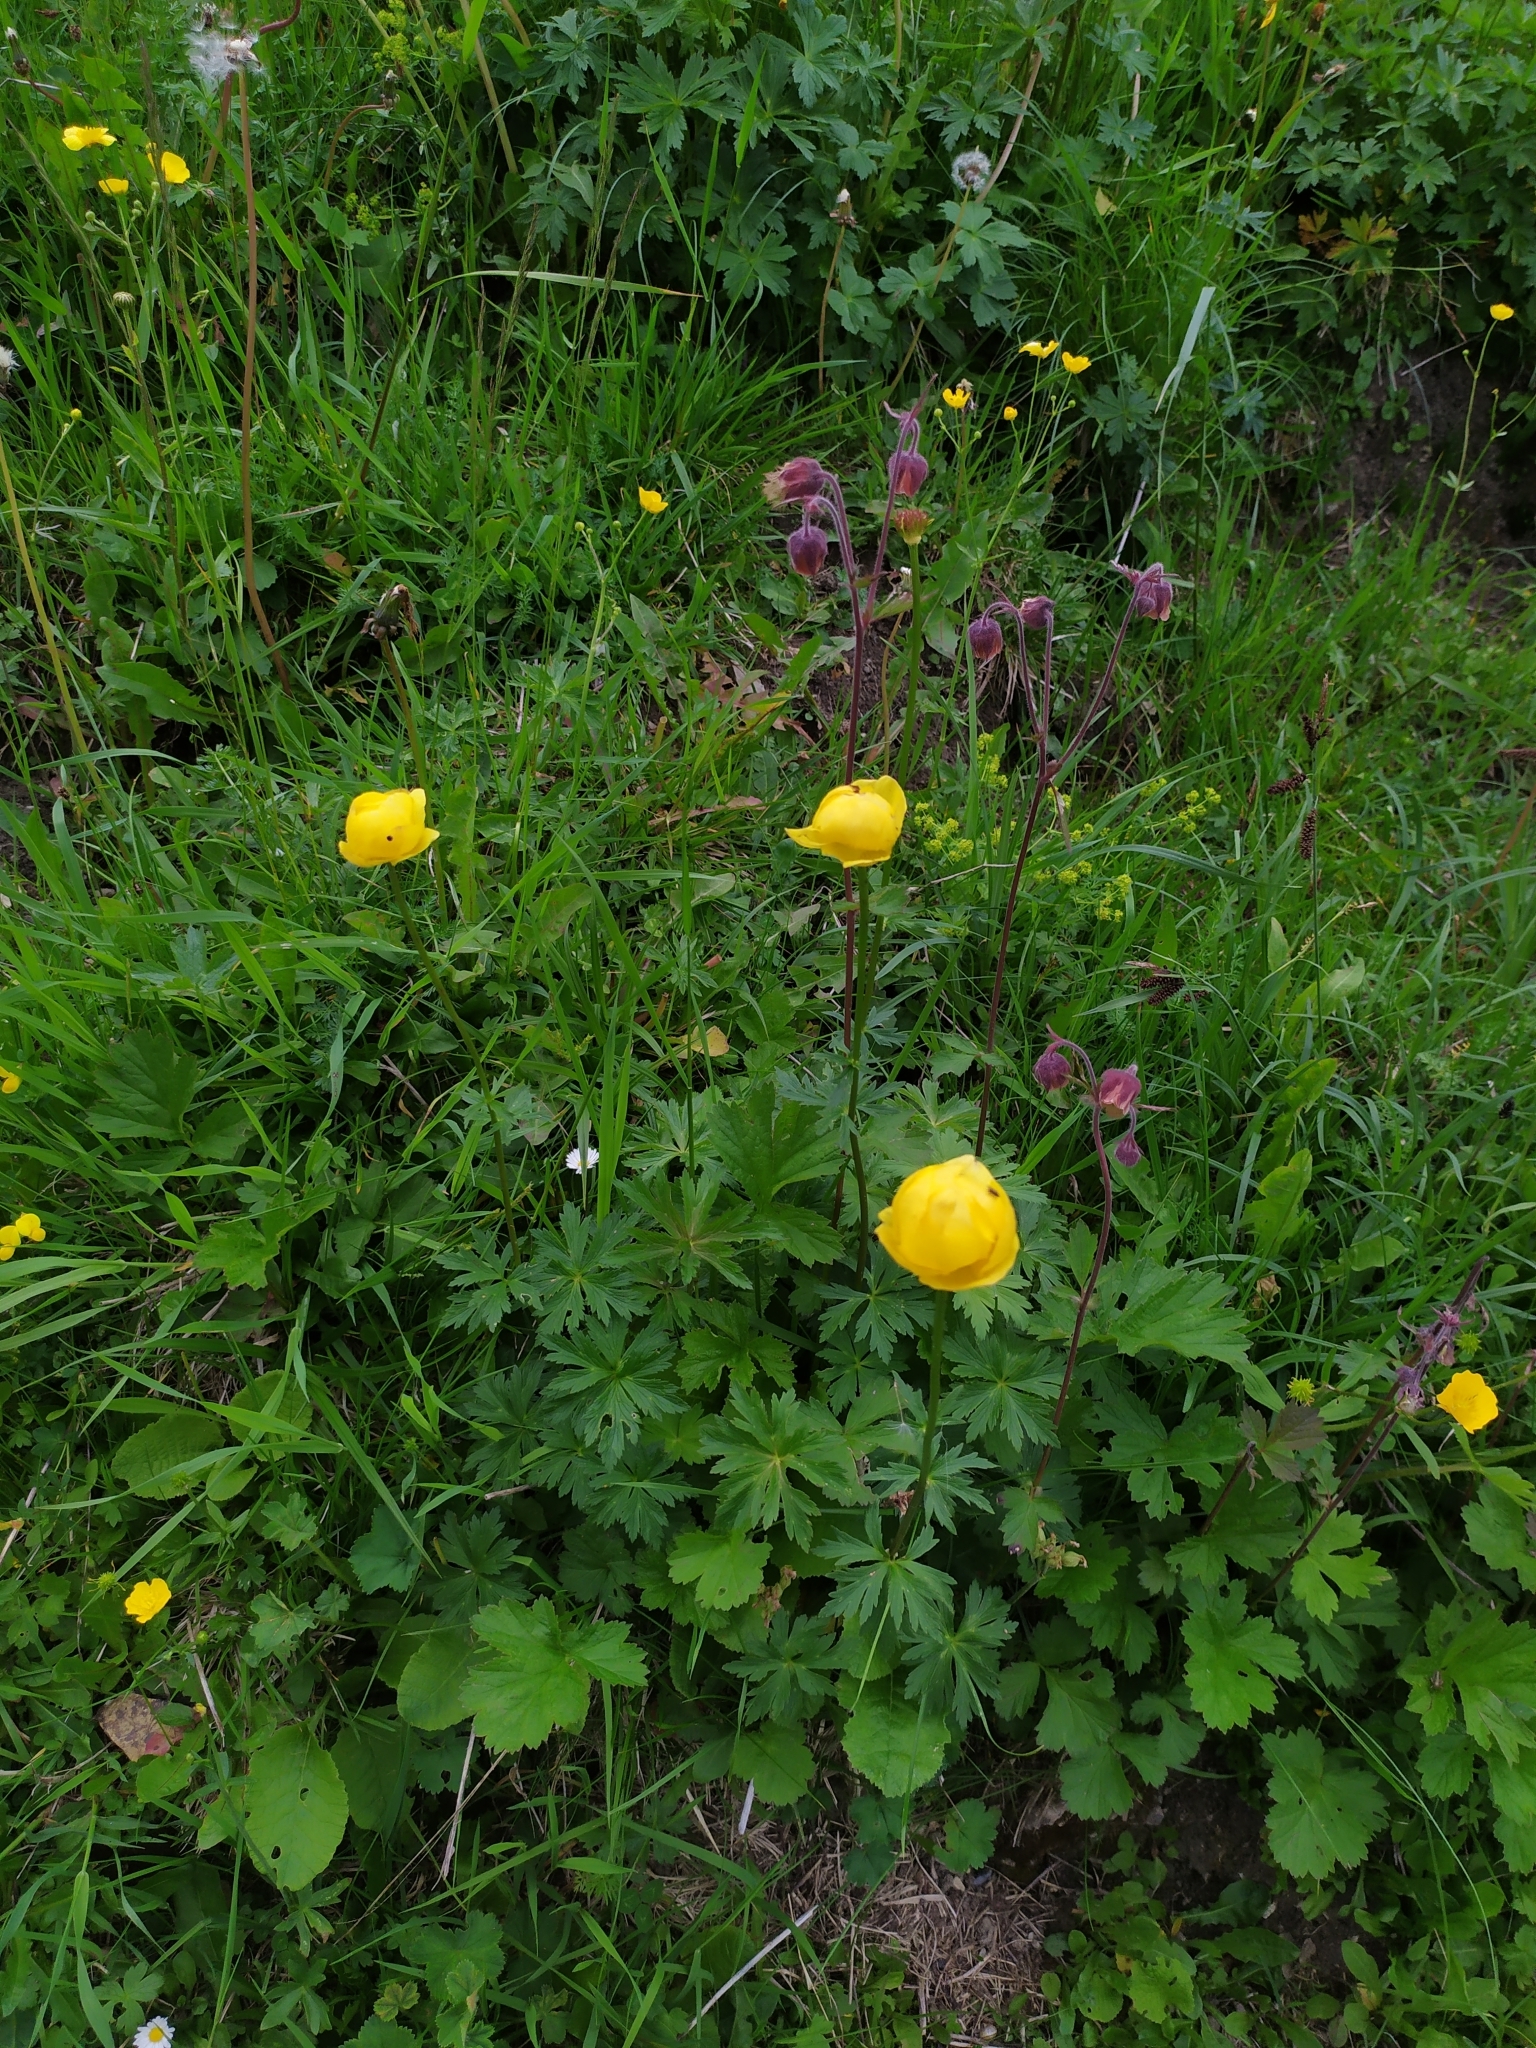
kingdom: Plantae
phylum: Tracheophyta
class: Magnoliopsida
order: Ranunculales
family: Ranunculaceae
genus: Trollius
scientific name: Trollius europaeus
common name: European globeflower
